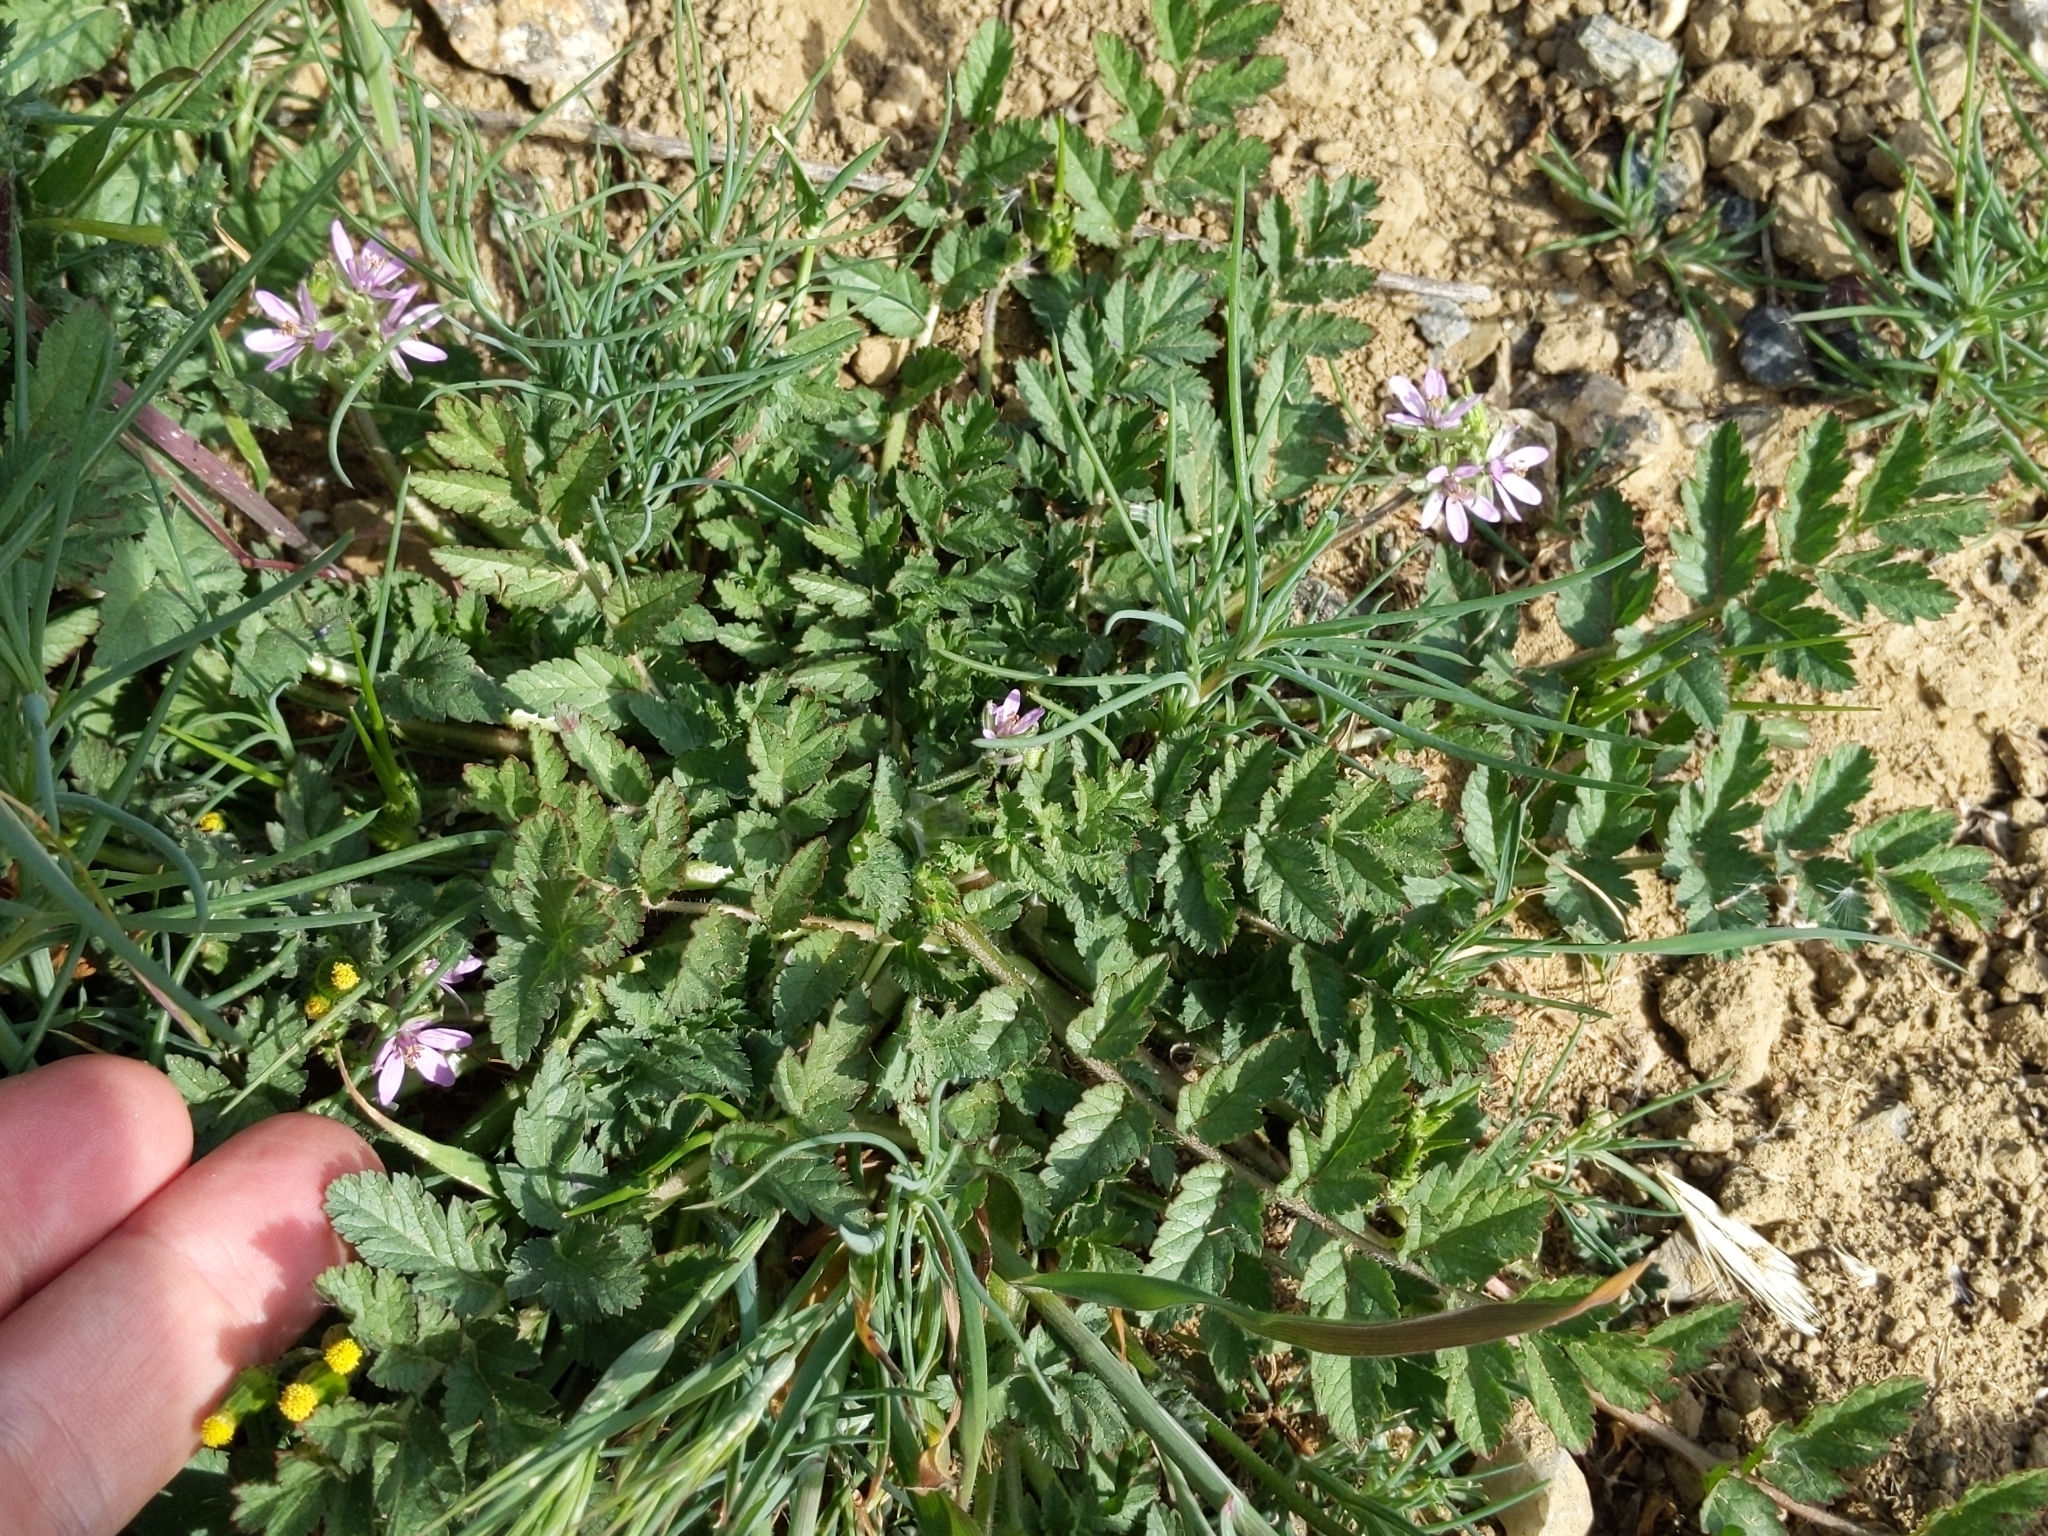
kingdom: Plantae
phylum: Tracheophyta
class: Magnoliopsida
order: Geraniales
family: Geraniaceae
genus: Erodium
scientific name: Erodium moschatum
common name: Musk stork's-bill
